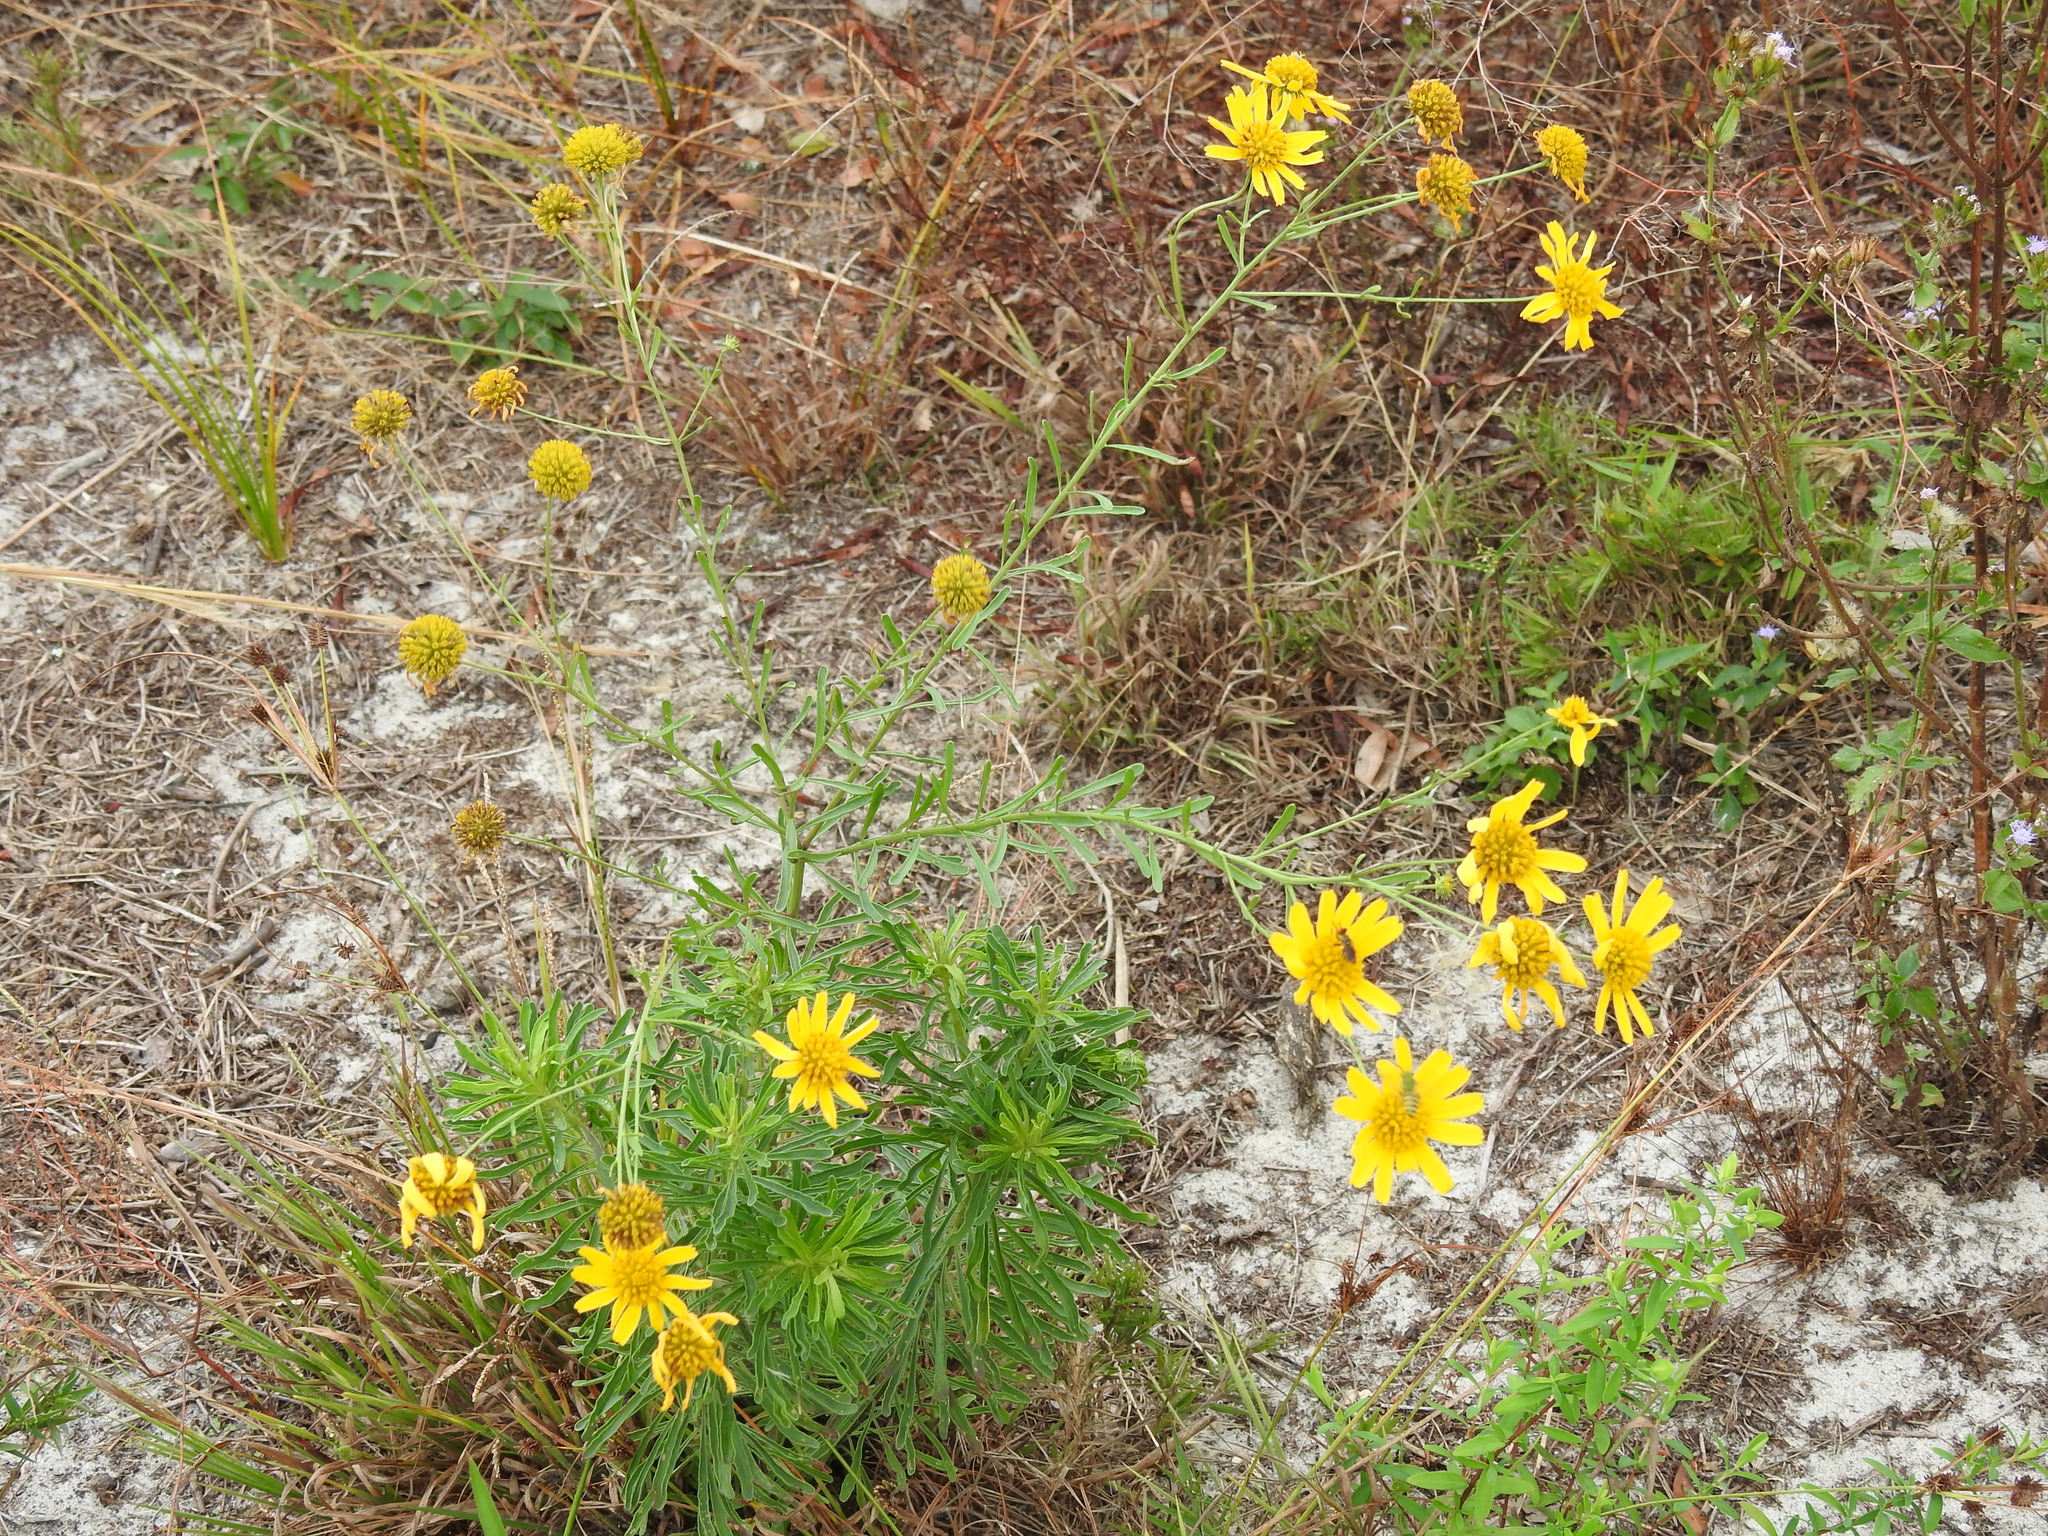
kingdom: Plantae
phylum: Tracheophyta
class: Magnoliopsida
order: Asterales
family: Asteraceae
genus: Balduina
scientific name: Balduina angustifolia
